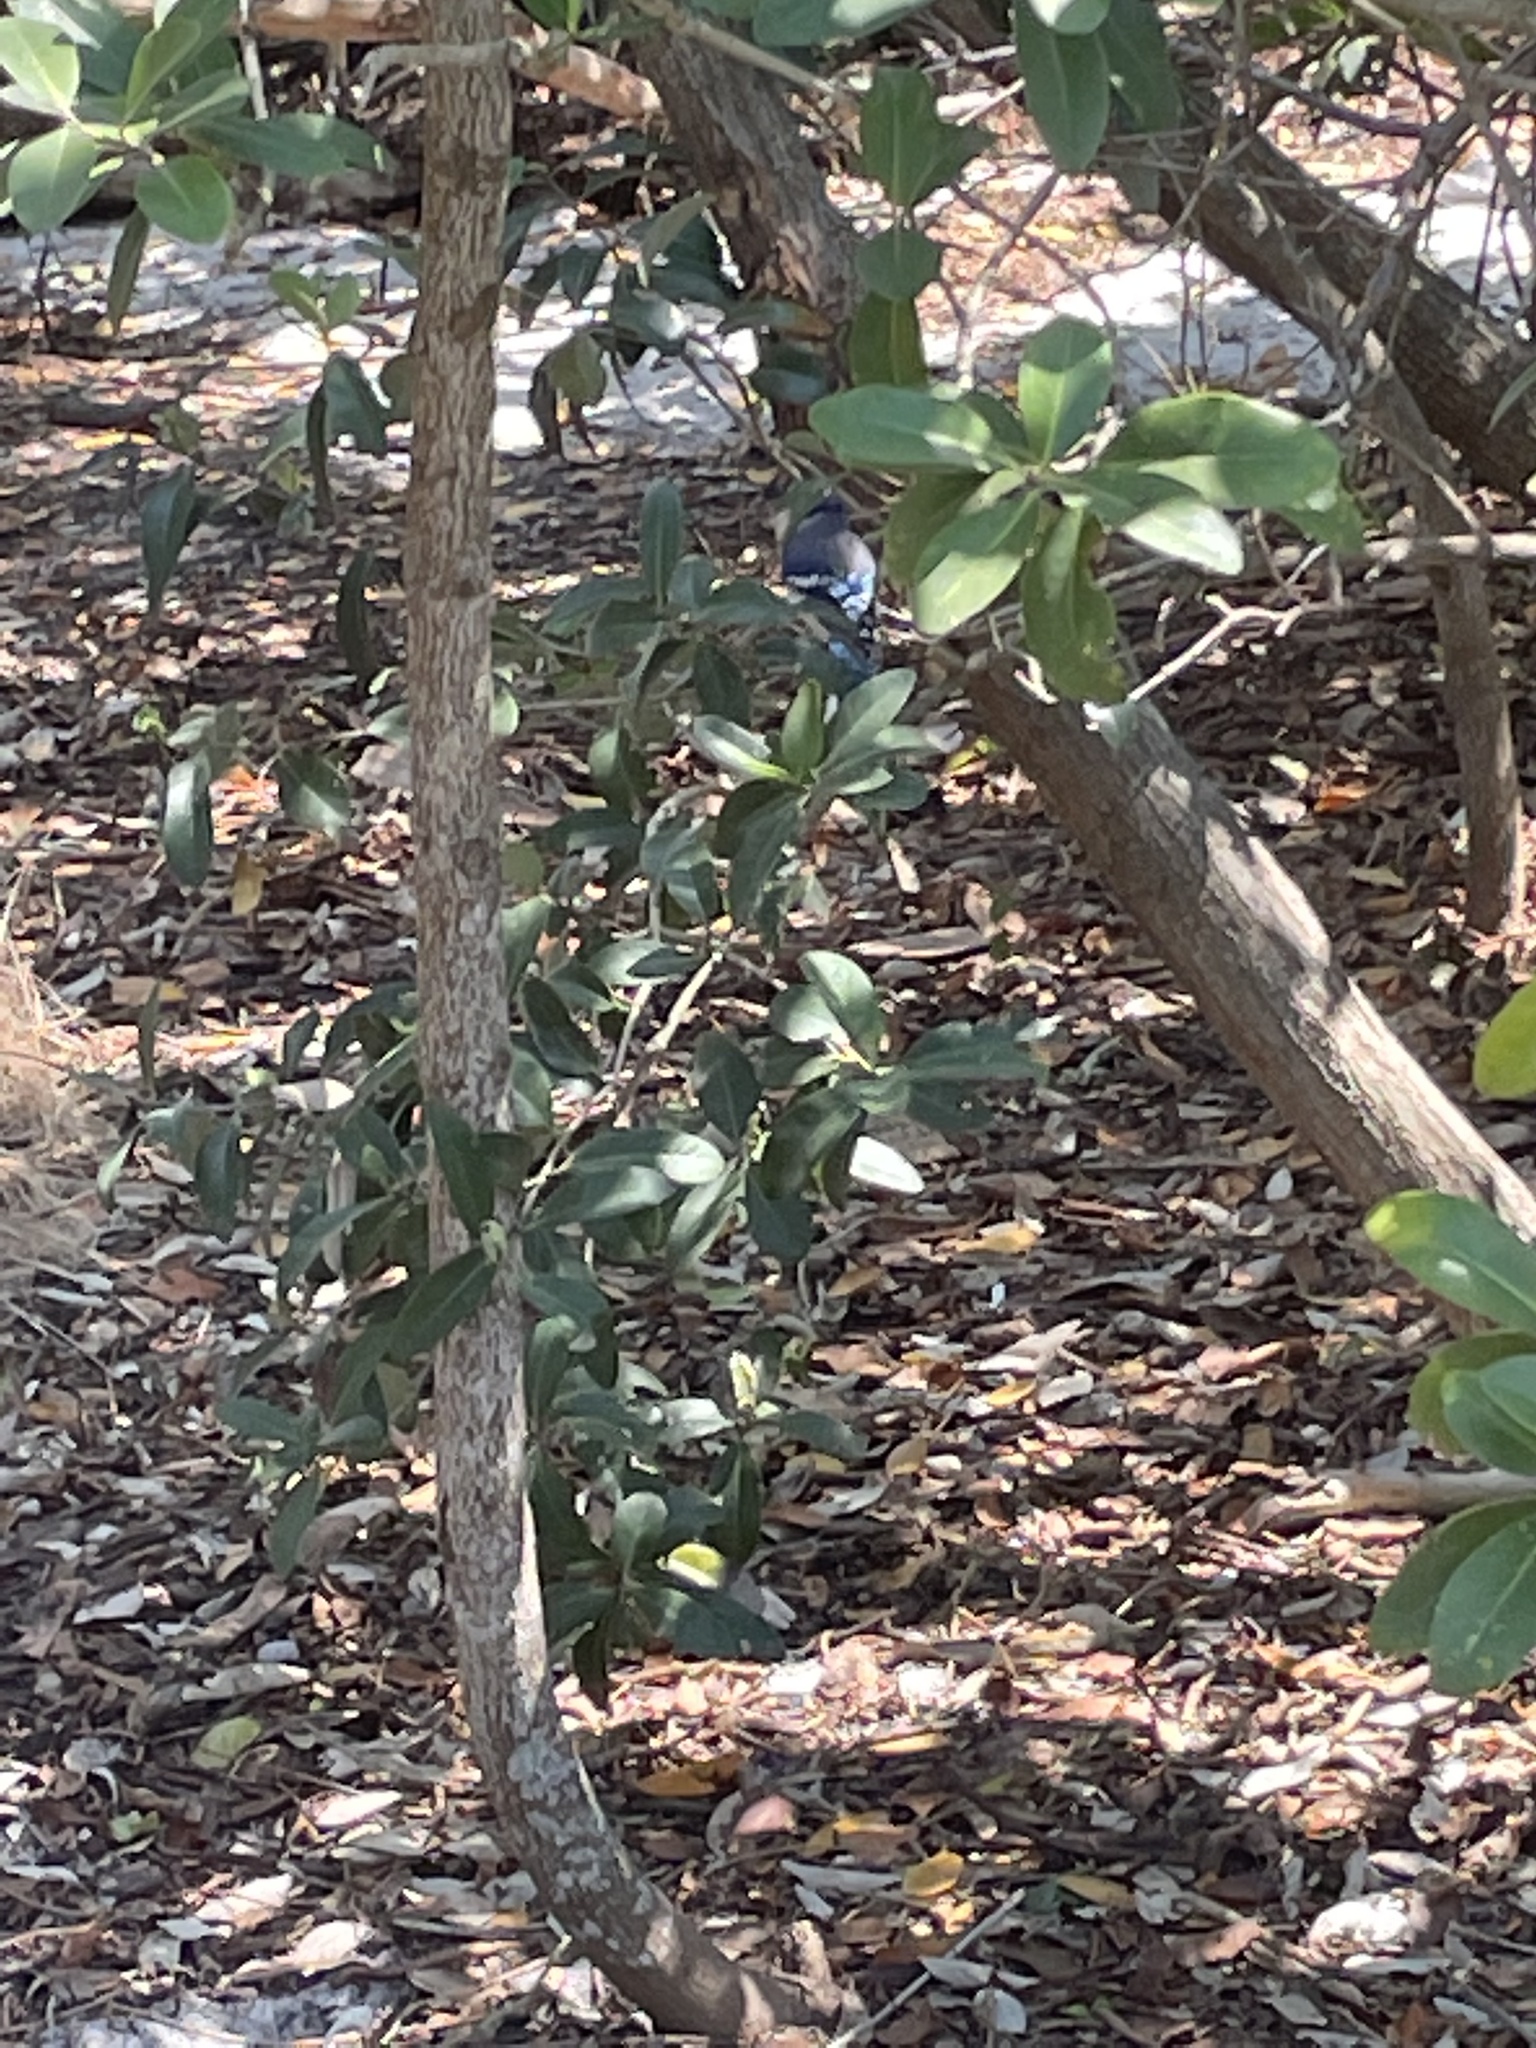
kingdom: Animalia
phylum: Chordata
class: Aves
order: Passeriformes
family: Corvidae
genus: Cyanocitta
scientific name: Cyanocitta cristata
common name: Blue jay
